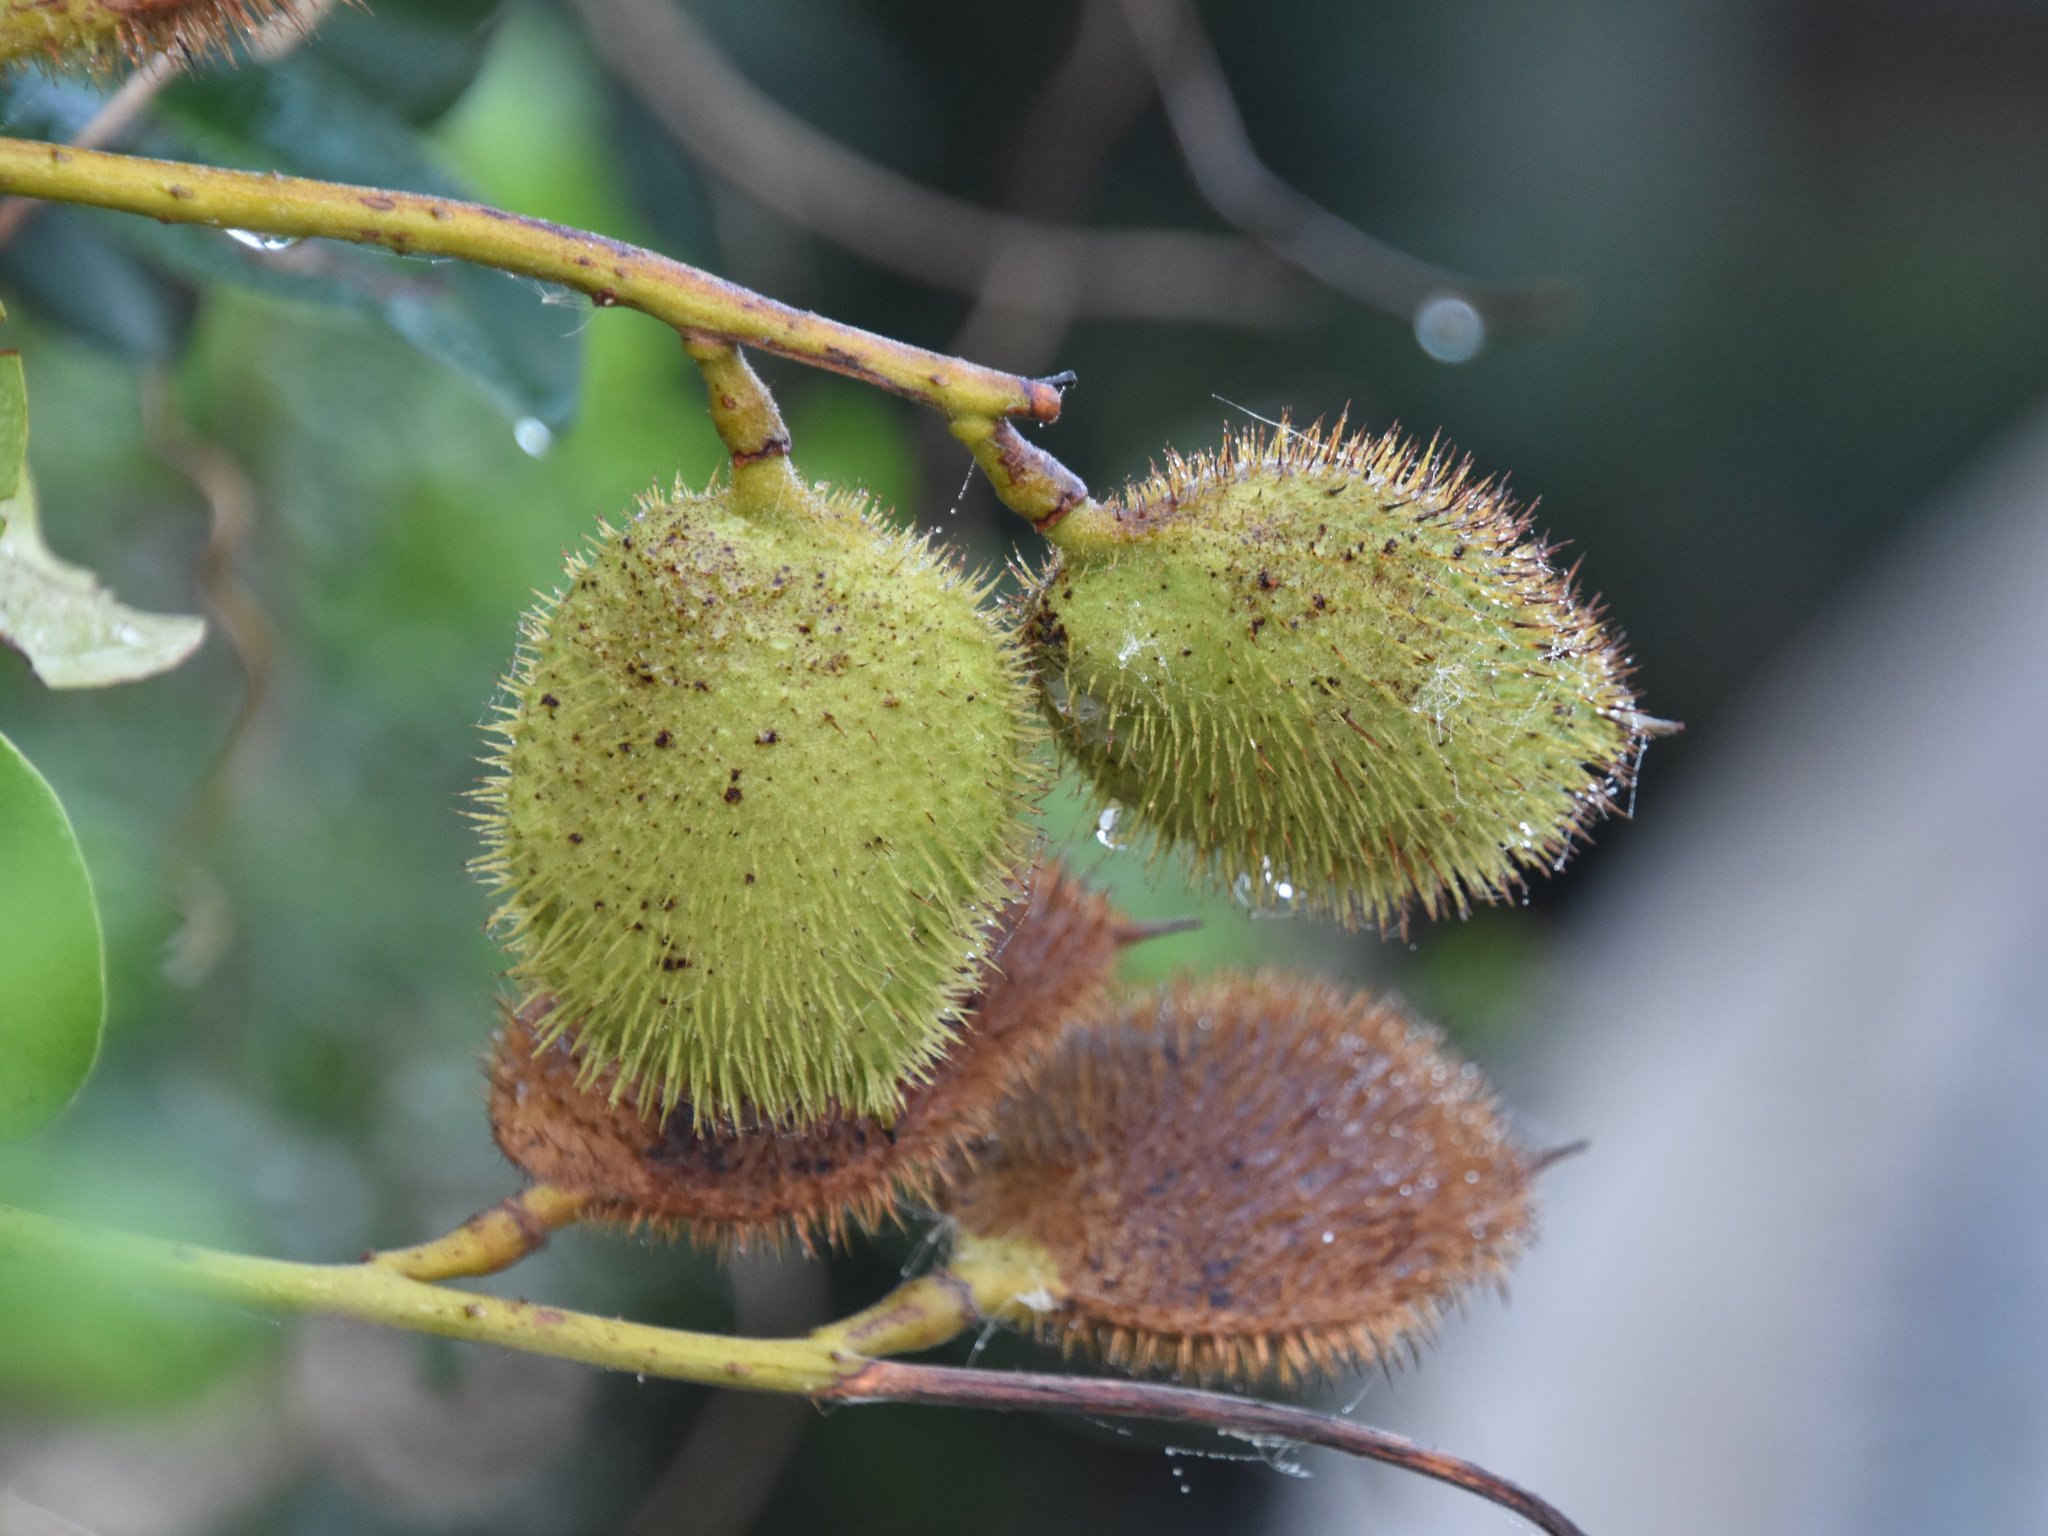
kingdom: Plantae
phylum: Tracheophyta
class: Magnoliopsida
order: Fabales
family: Fabaceae
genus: Guilandina
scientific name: Guilandina bonduc
